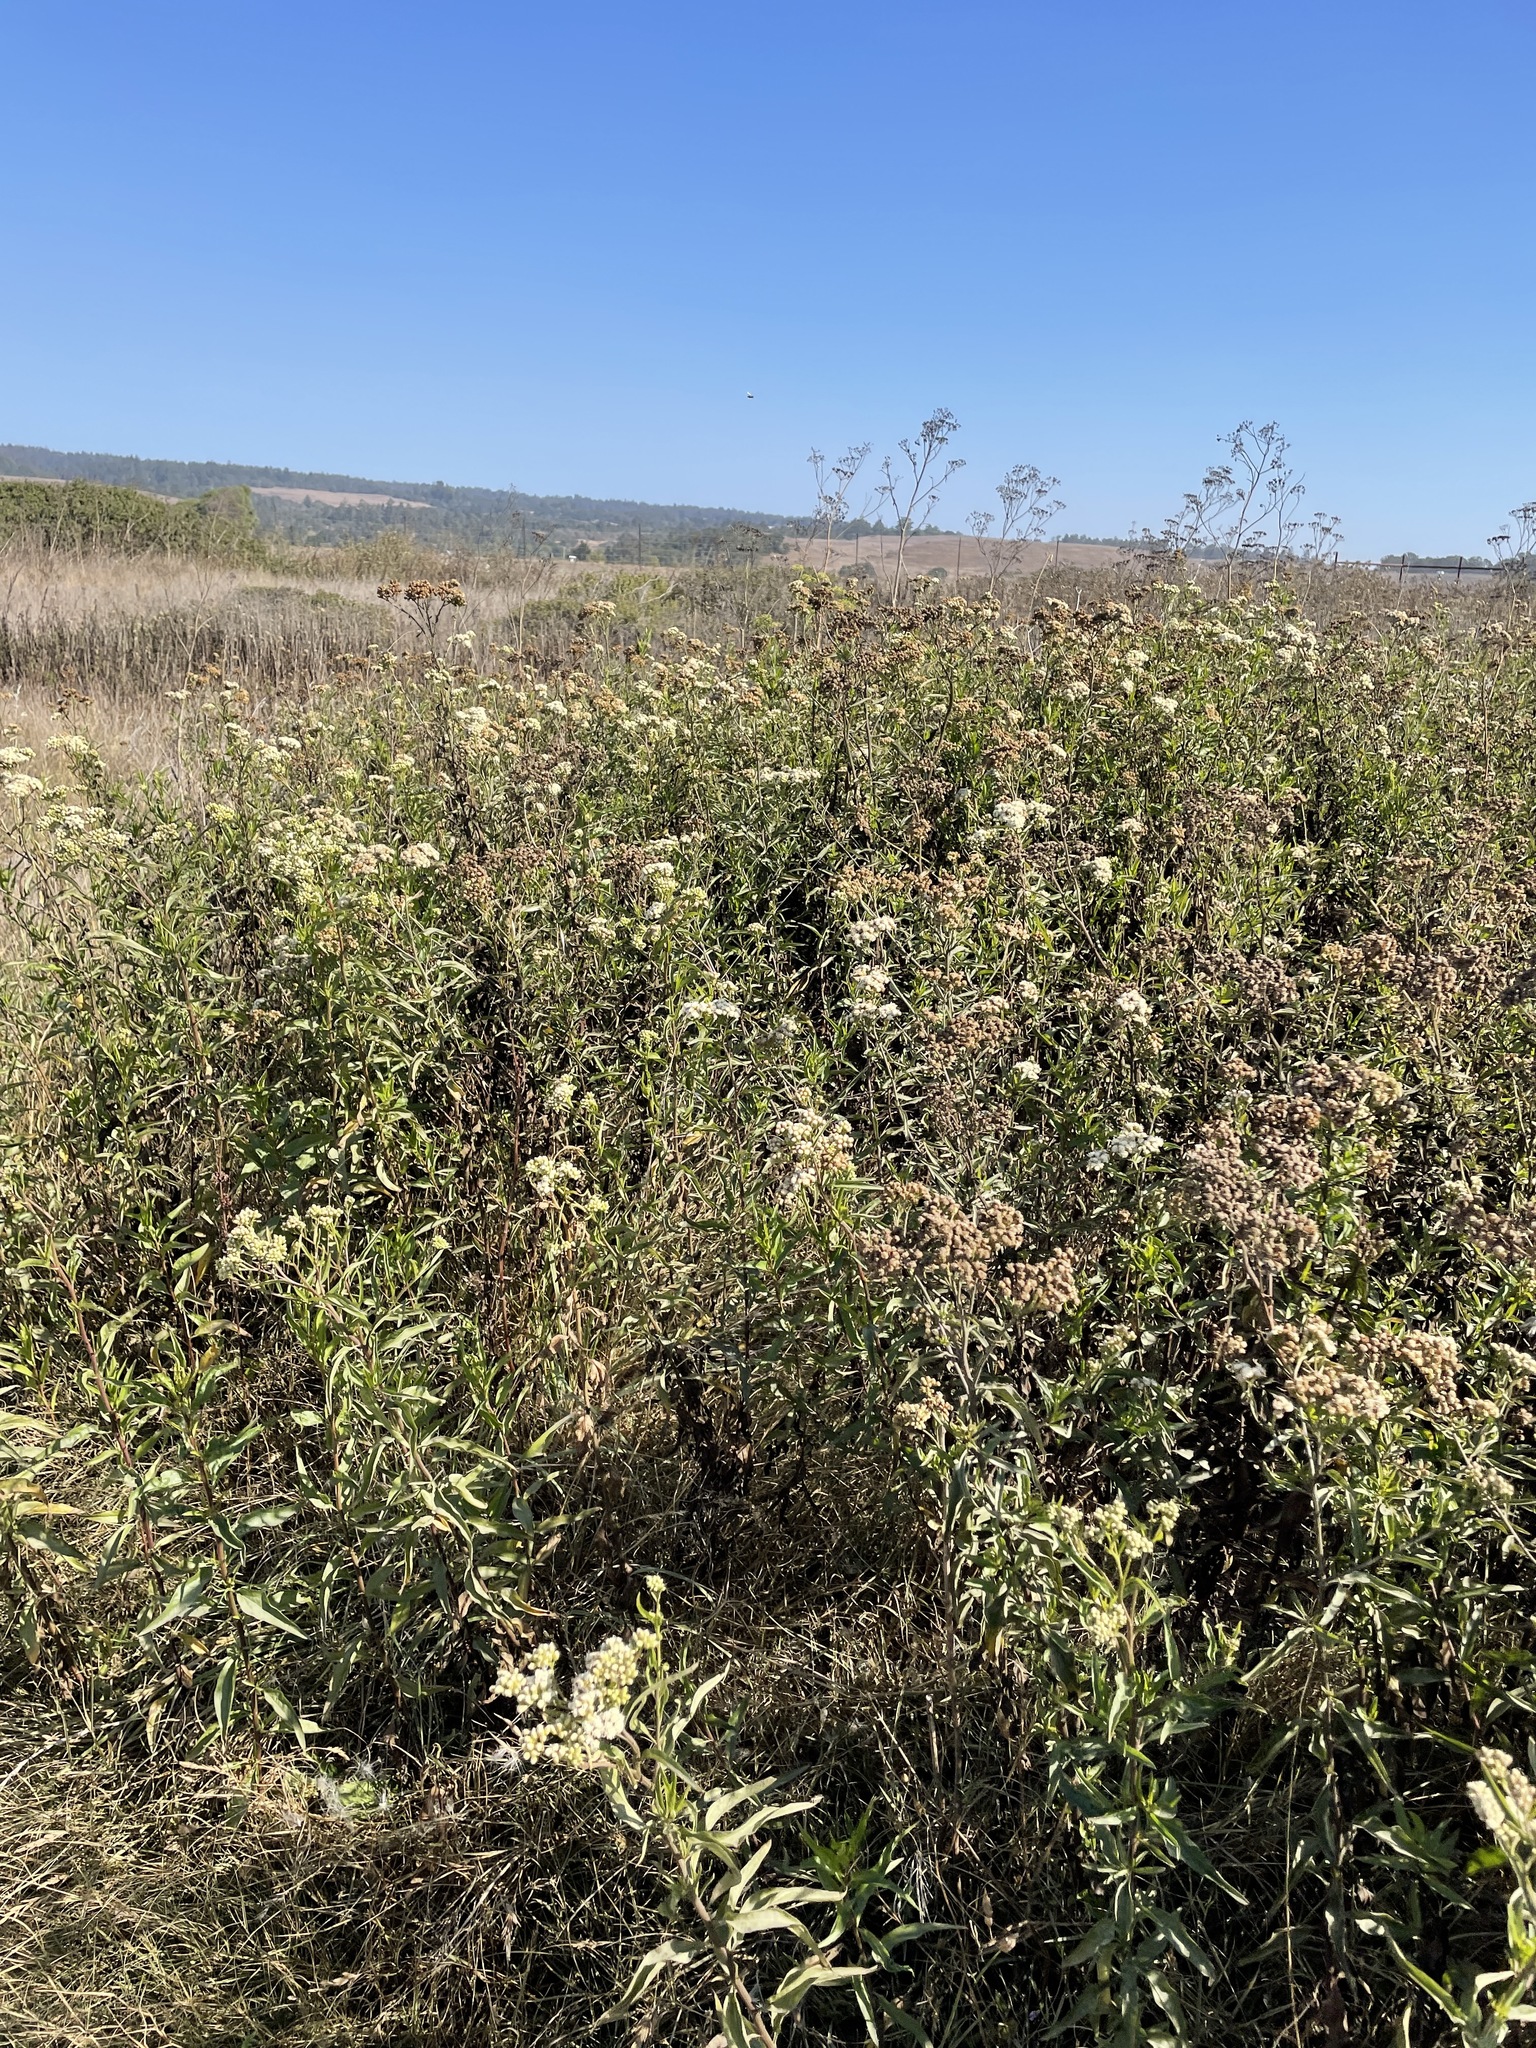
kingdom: Plantae
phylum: Tracheophyta
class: Magnoliopsida
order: Asterales
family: Asteraceae
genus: Baccharis
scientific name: Baccharis glutinosa
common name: Saltmarsh baccharis
